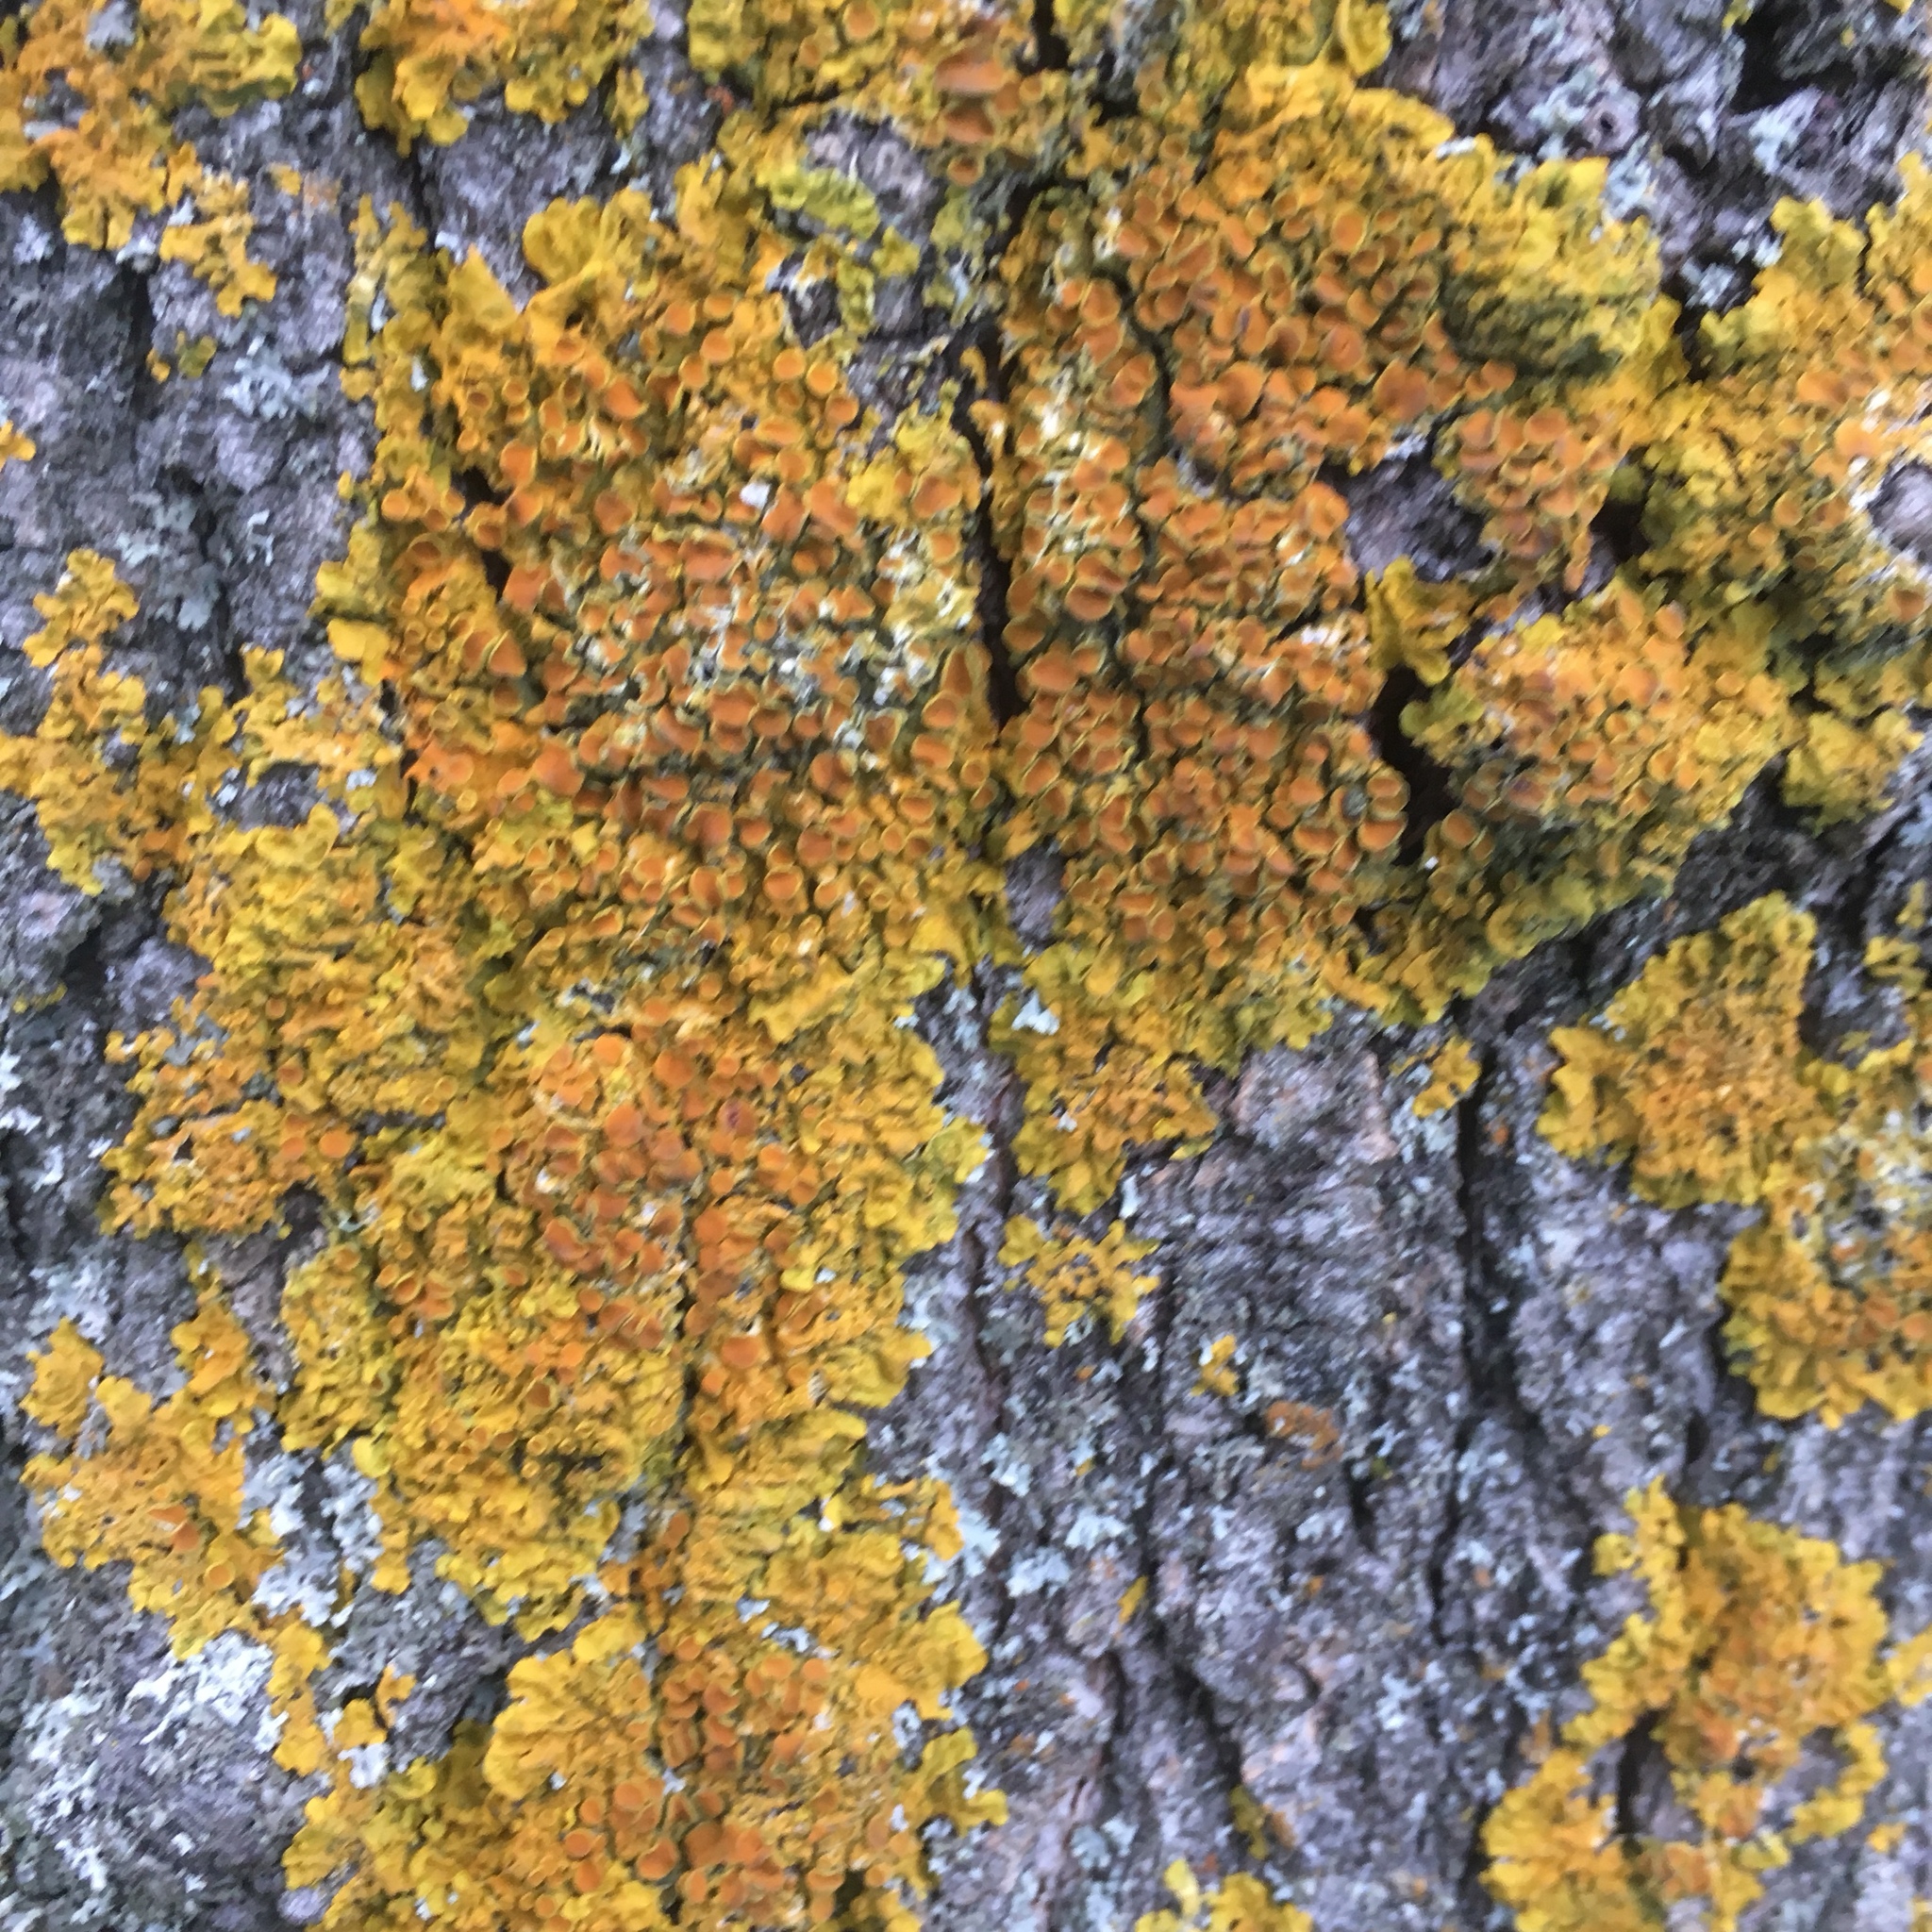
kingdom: Fungi
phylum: Ascomycota
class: Lecanoromycetes
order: Teloschistales
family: Teloschistaceae
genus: Xanthoria
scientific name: Xanthoria parietina
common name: Common orange lichen
